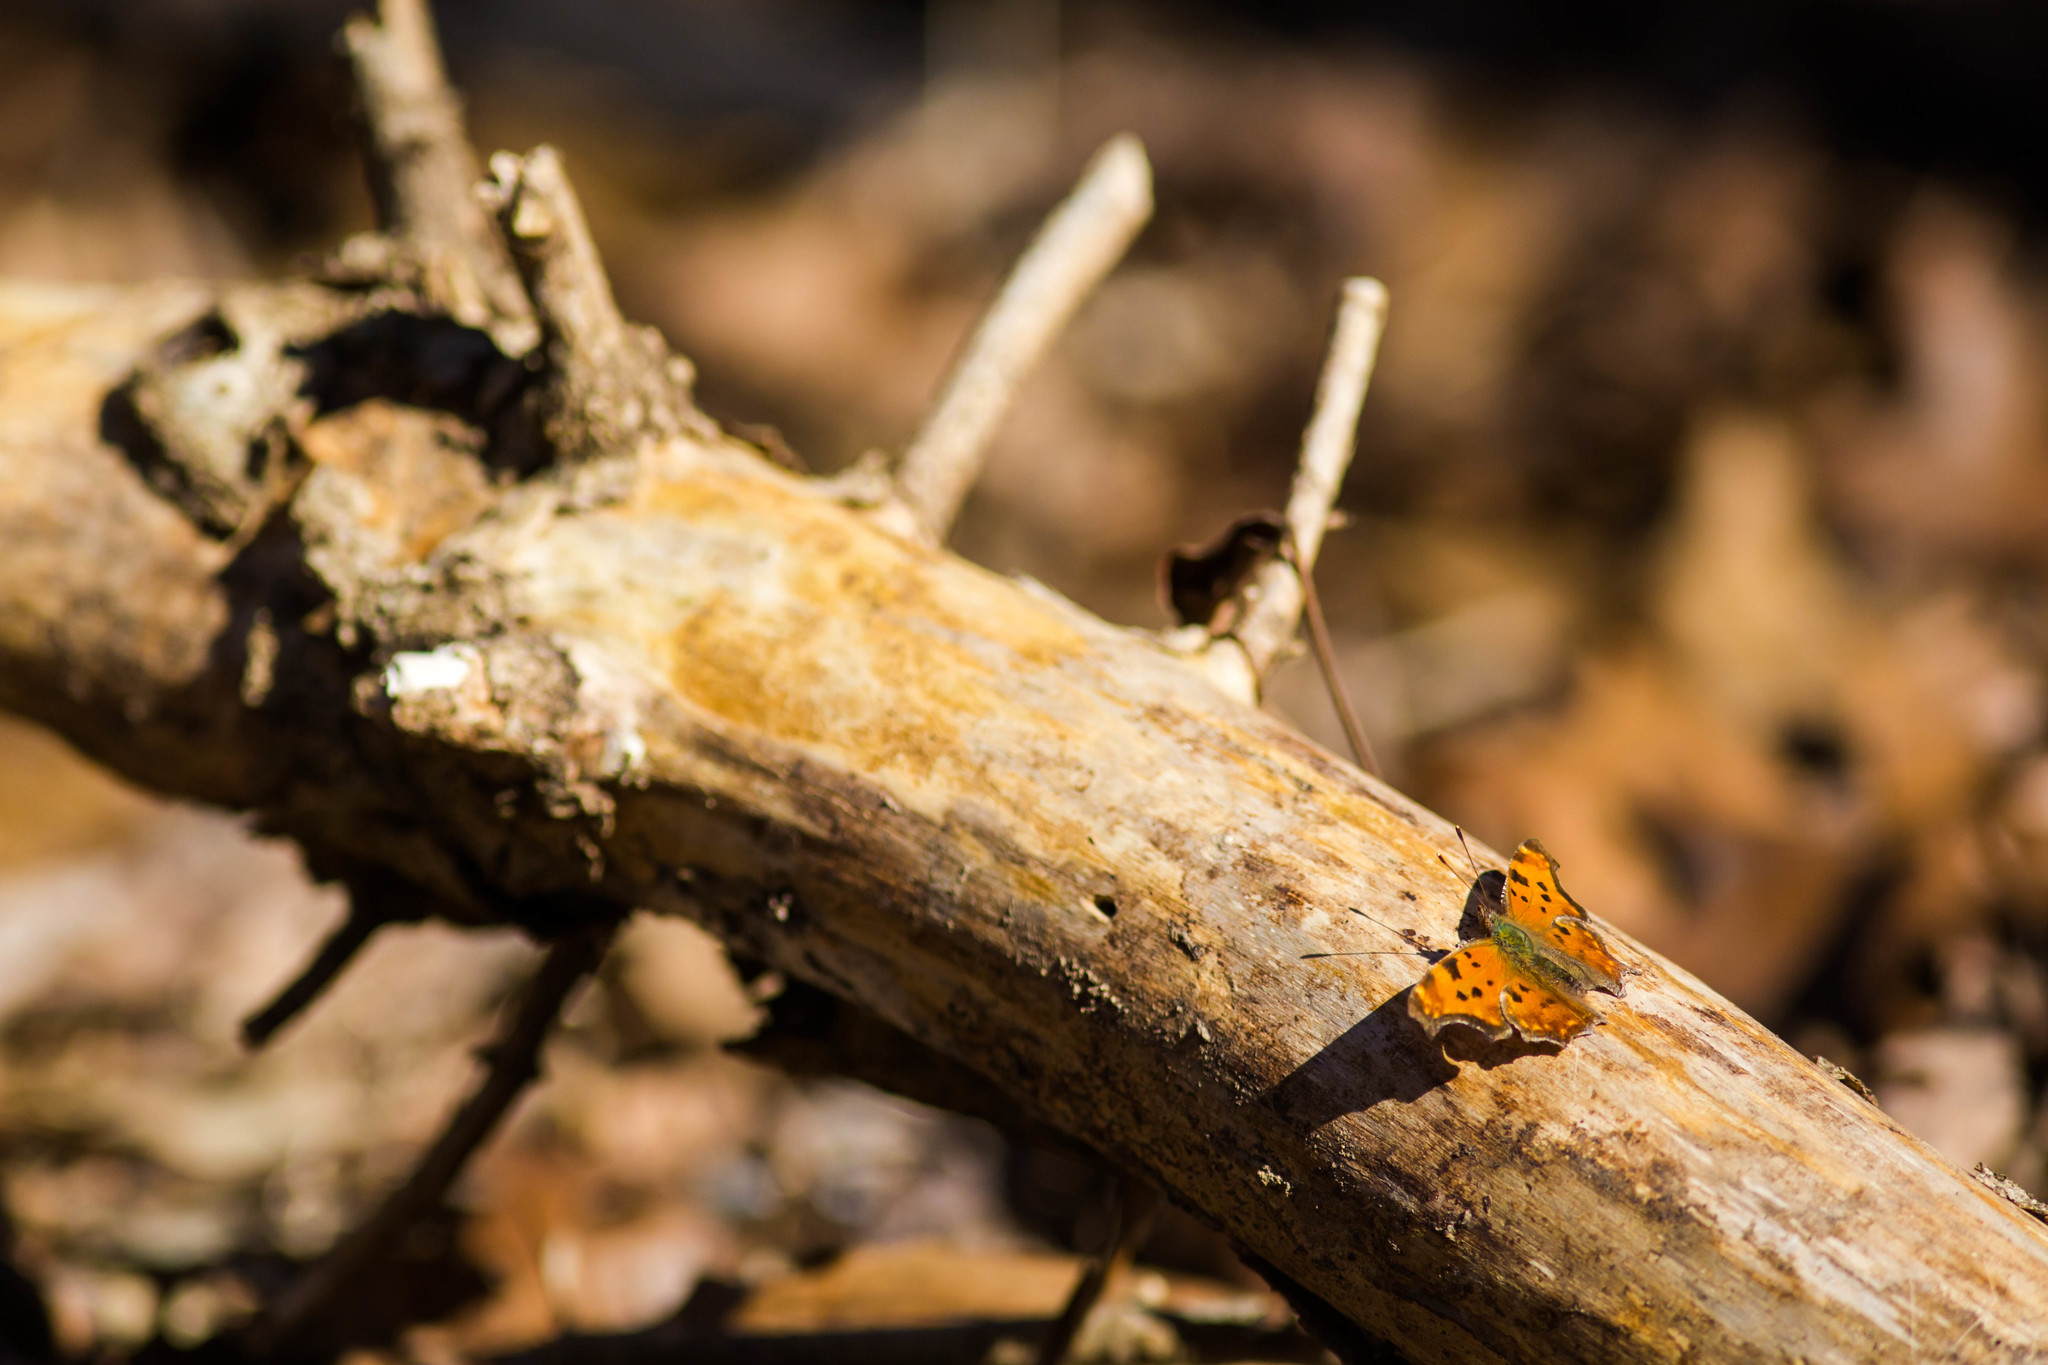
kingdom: Animalia
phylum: Arthropoda
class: Insecta
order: Lepidoptera
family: Nymphalidae
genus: Polygonia
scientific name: Polygonia comma
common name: Eastern comma
